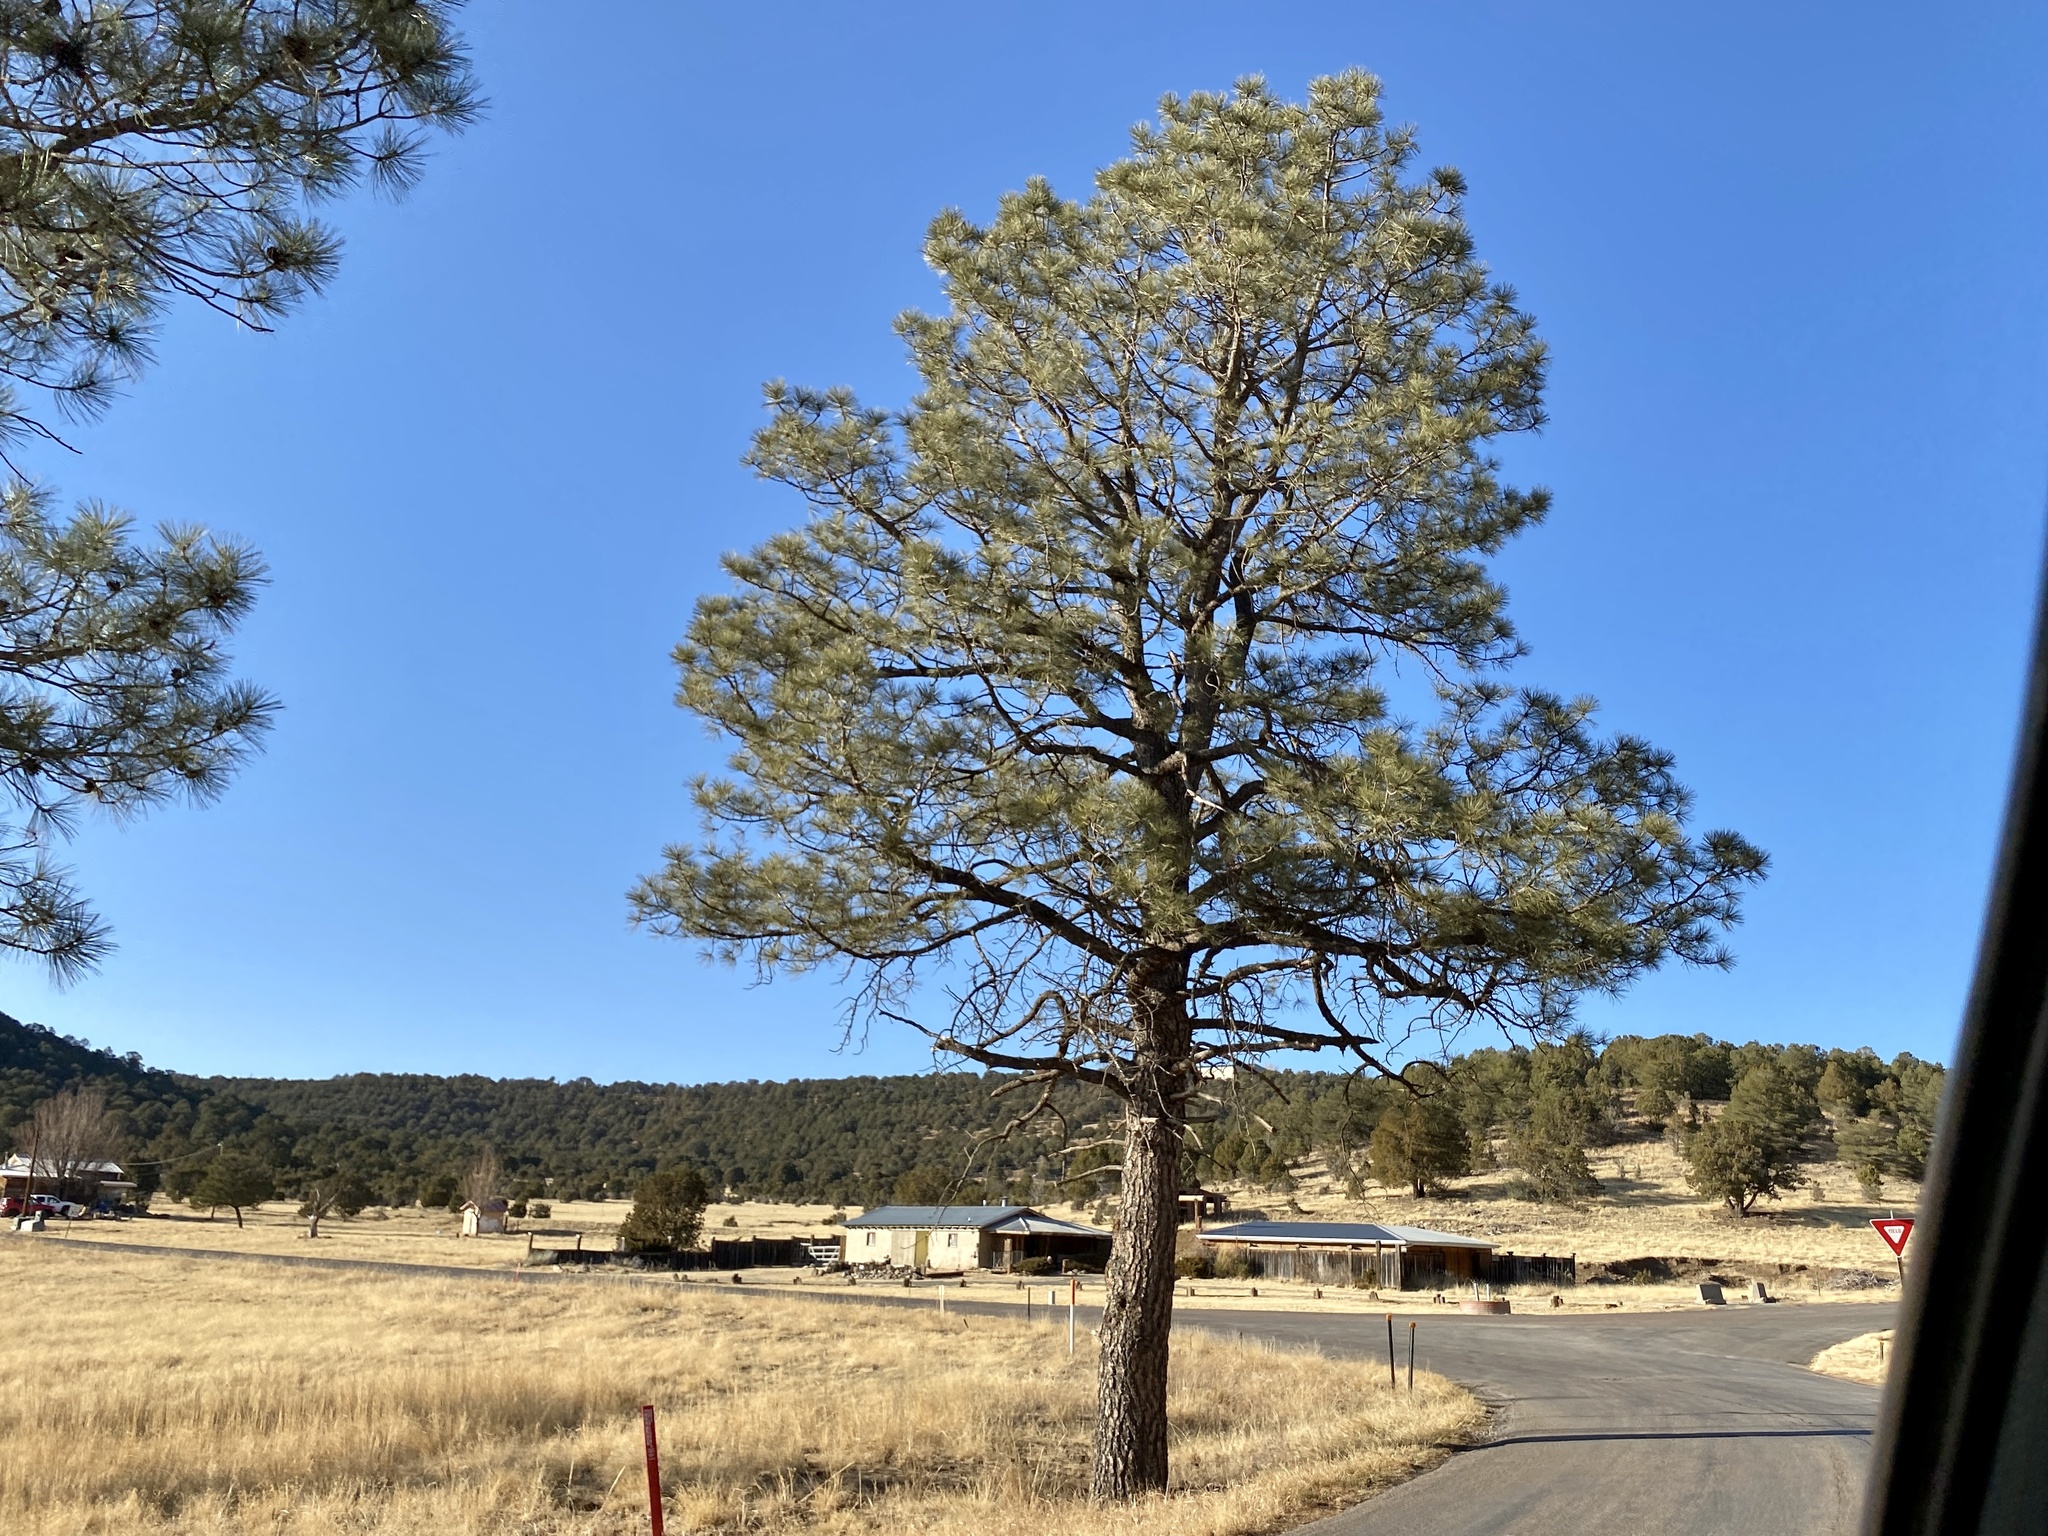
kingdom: Plantae
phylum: Tracheophyta
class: Pinopsida
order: Pinales
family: Pinaceae
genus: Pinus
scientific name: Pinus ponderosa
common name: Western yellow-pine
